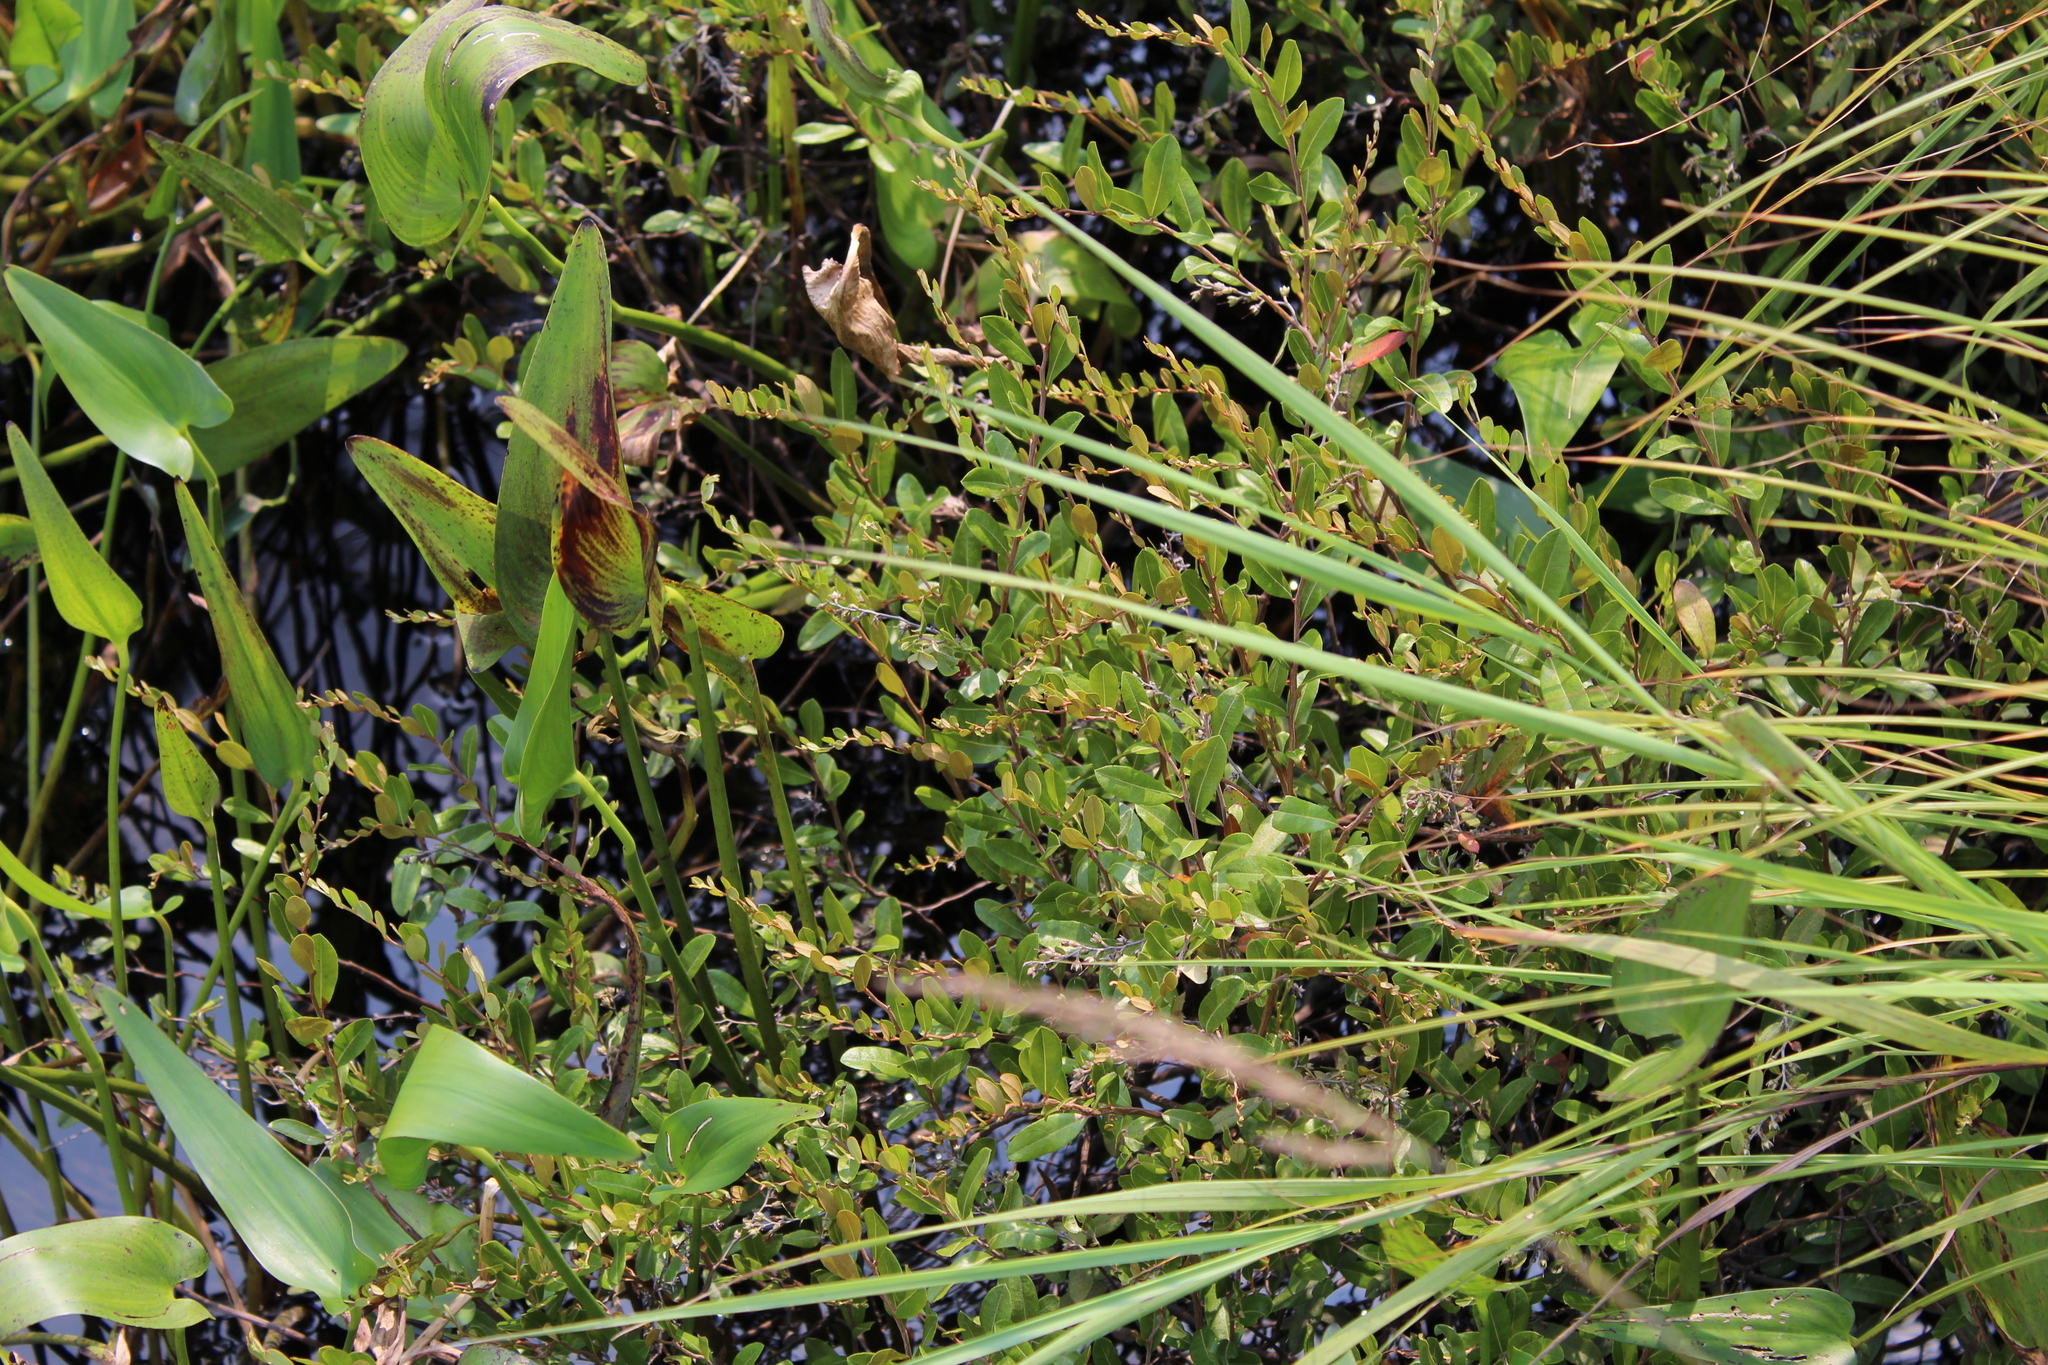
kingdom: Plantae
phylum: Tracheophyta
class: Magnoliopsida
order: Ericales
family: Ericaceae
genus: Chamaedaphne
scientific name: Chamaedaphne calyculata
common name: Leatherleaf
